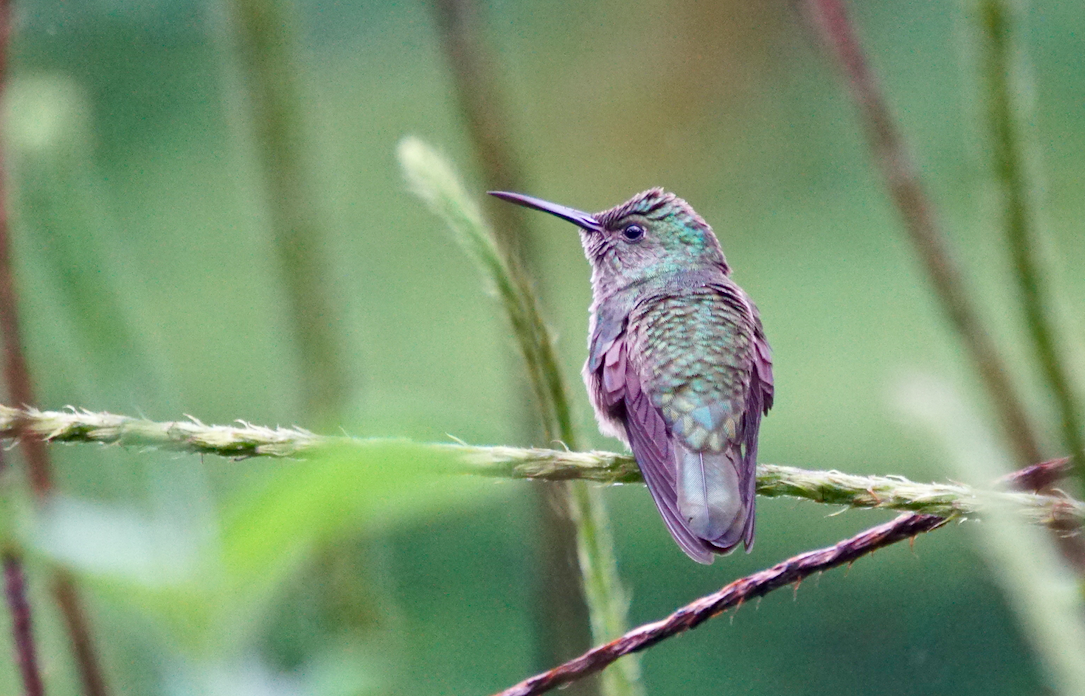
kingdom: Animalia
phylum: Chordata
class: Aves
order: Apodiformes
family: Trochilidae
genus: Phaeochroa
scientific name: Phaeochroa cuvierii
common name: Scaly-breasted hummingbird
